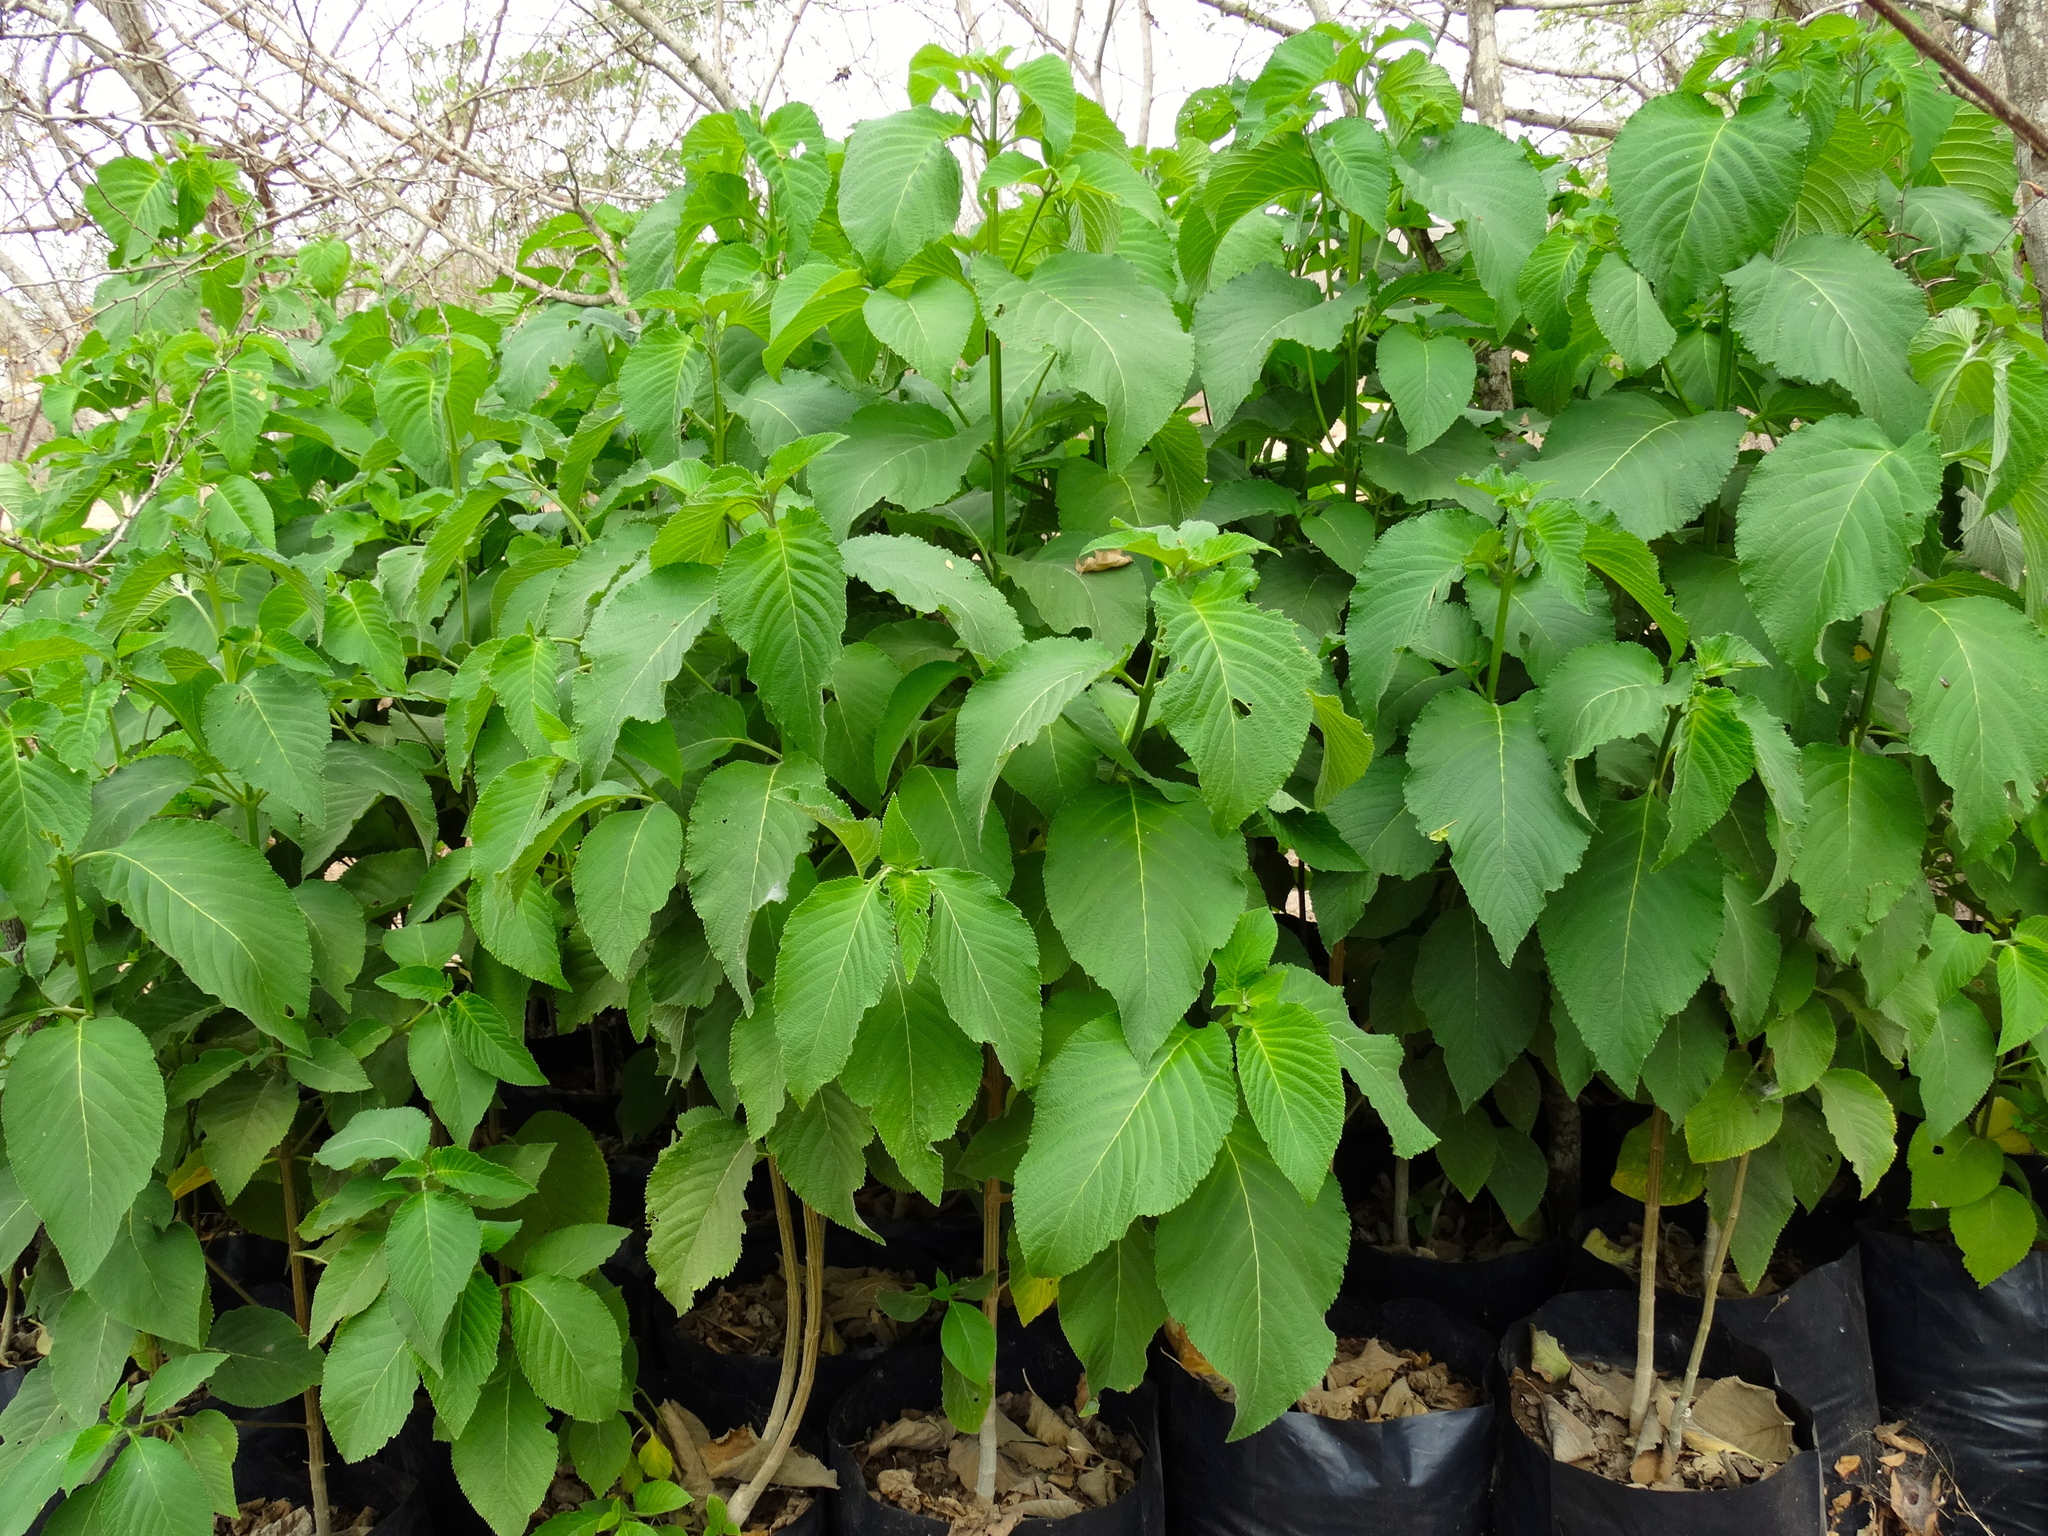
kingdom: Plantae
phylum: Tracheophyta
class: Magnoliopsida
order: Lamiales
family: Verbenaceae
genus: Lippia
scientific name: Lippia umbellata
